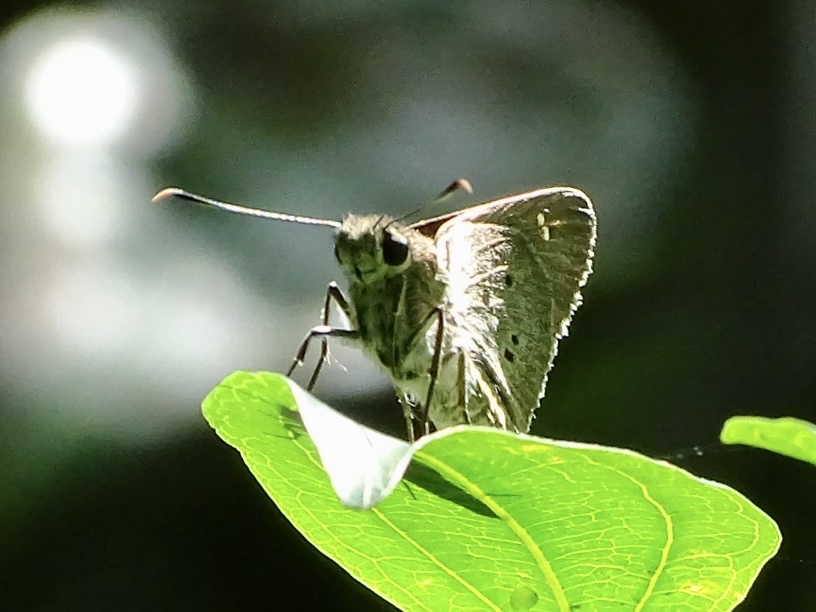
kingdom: Animalia
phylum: Arthropoda
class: Insecta
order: Lepidoptera
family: Hesperiidae
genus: Suastus
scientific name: Suastus gremius
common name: Indian palm bob
